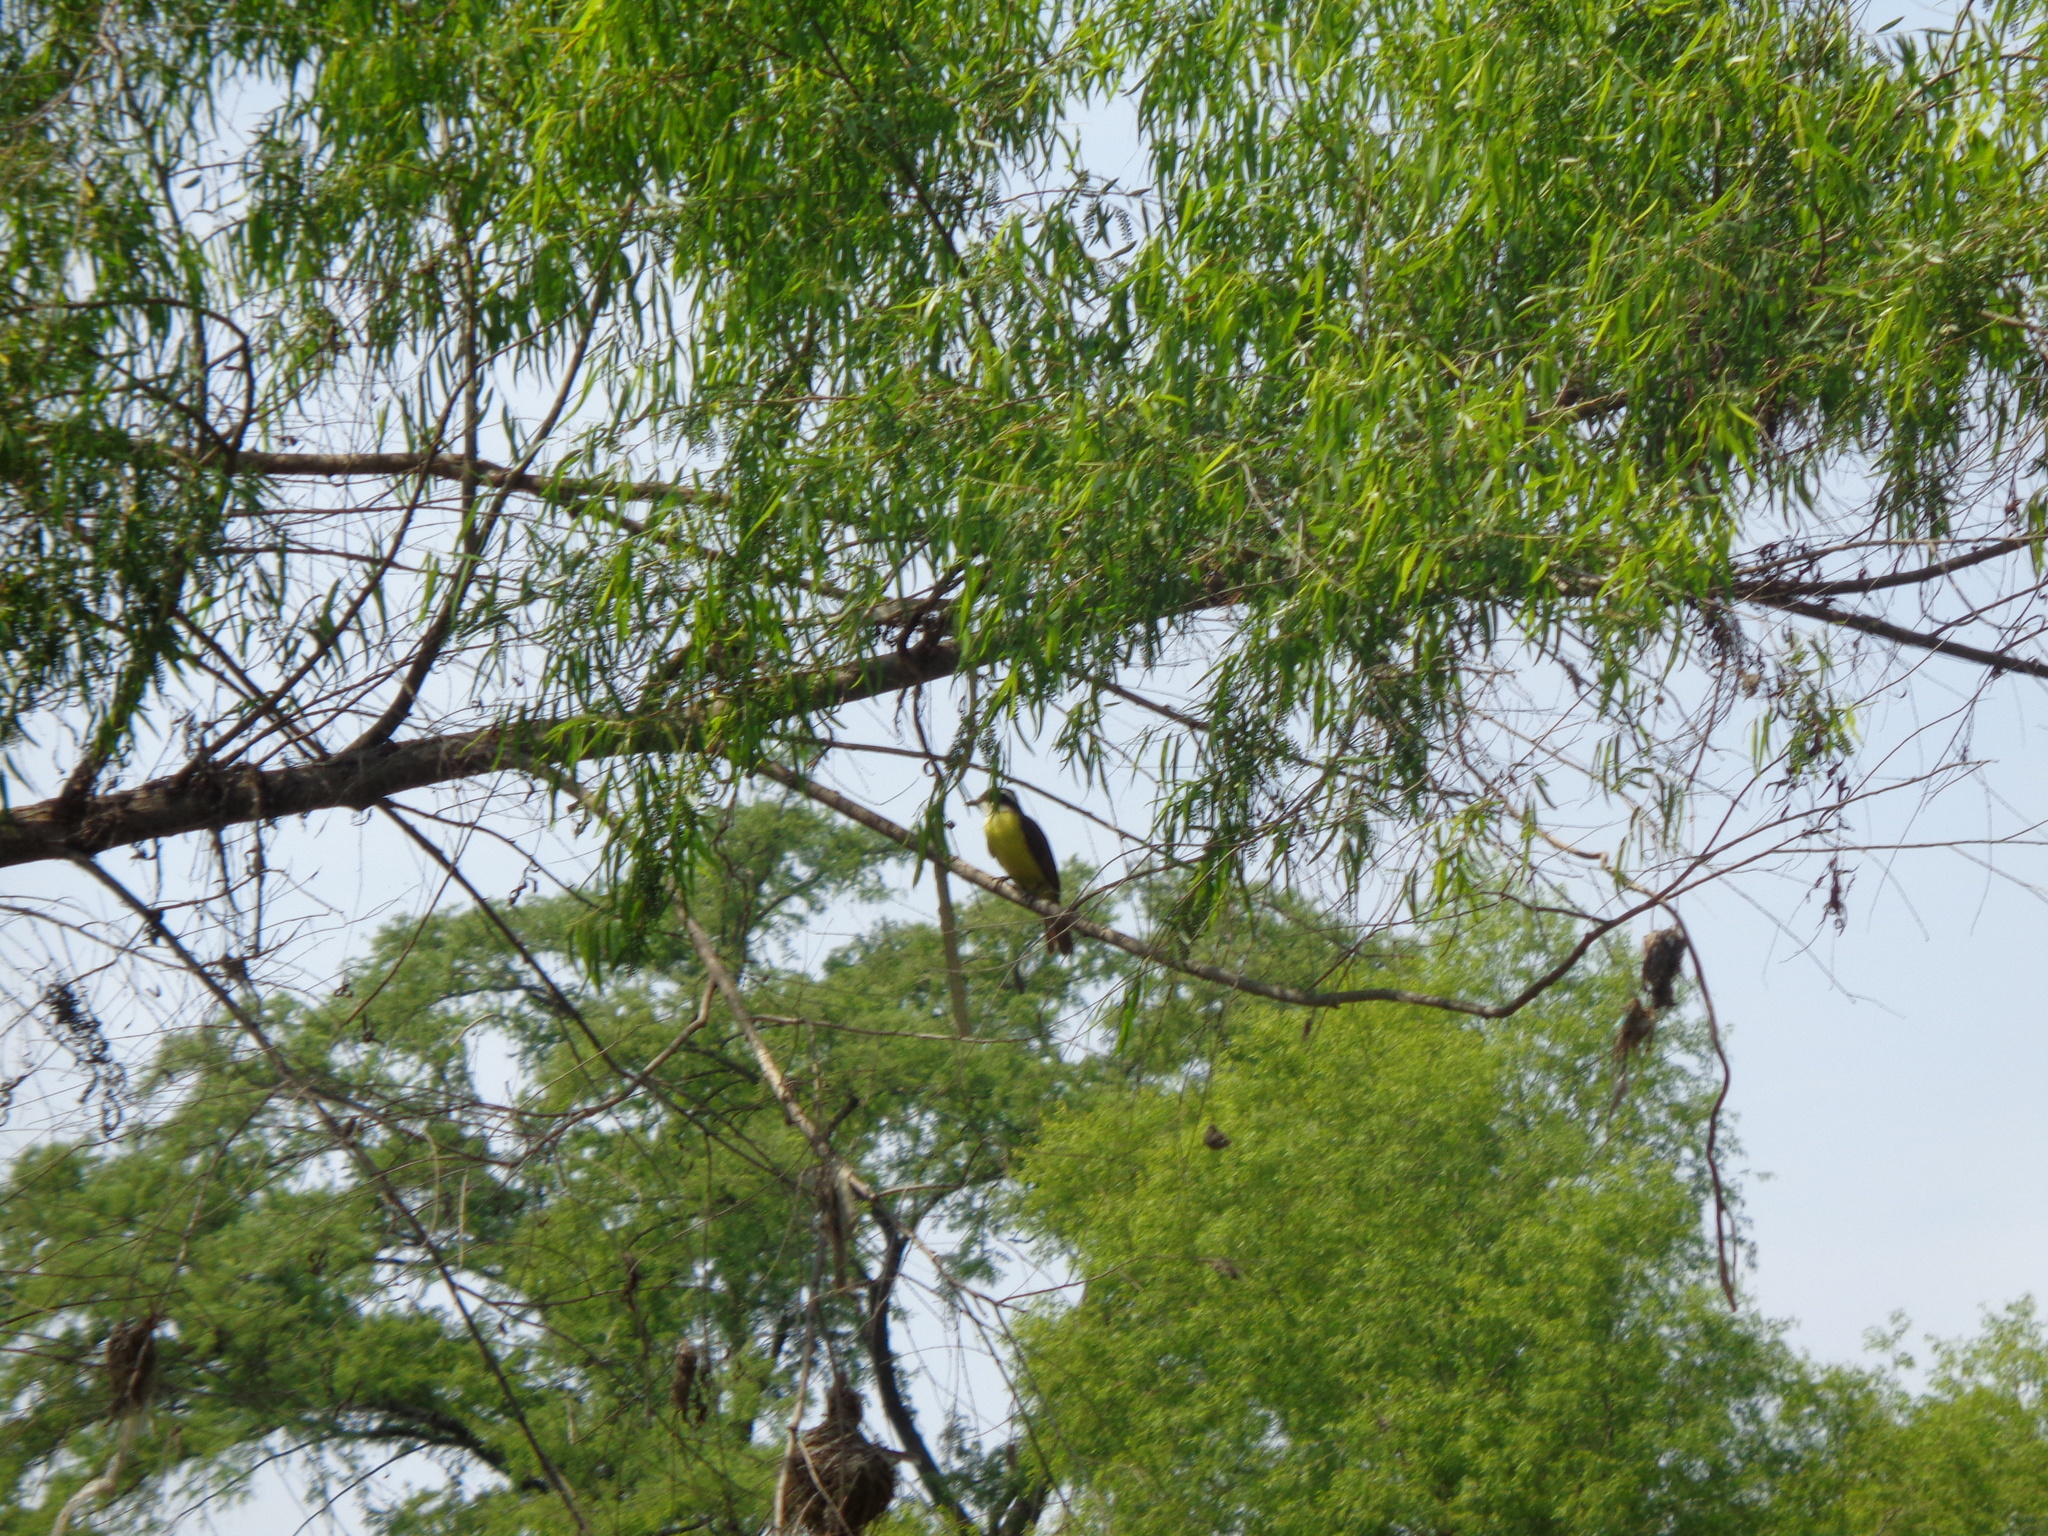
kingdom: Animalia
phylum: Chordata
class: Aves
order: Passeriformes
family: Tyrannidae
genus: Pitangus
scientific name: Pitangus sulphuratus
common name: Great kiskadee
